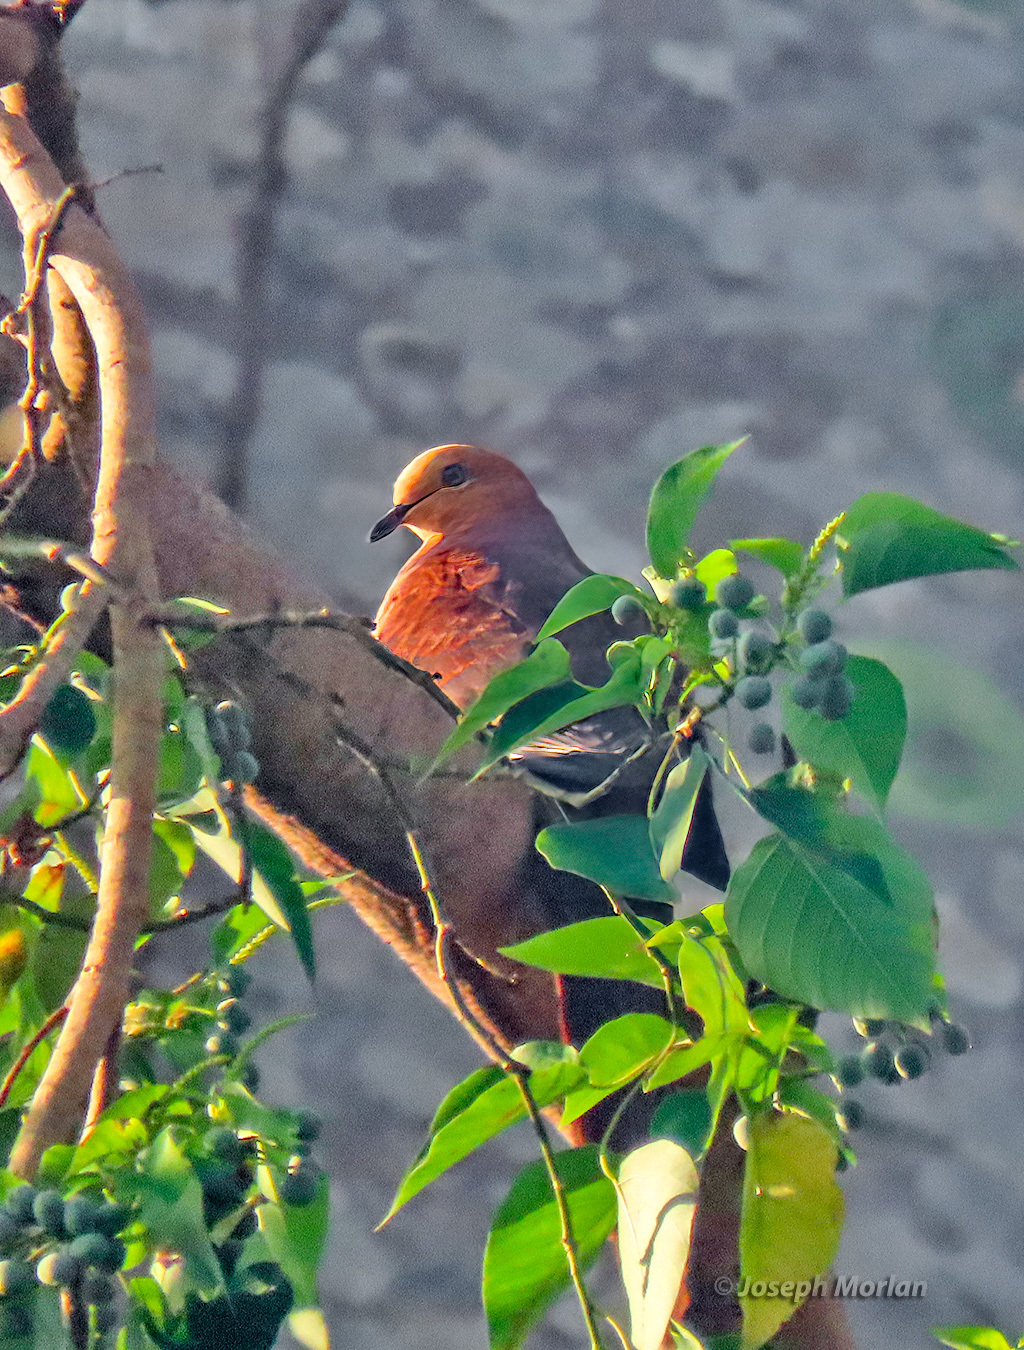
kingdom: Animalia
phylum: Chordata
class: Aves
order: Columbiformes
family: Columbidae
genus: Macropygia
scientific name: Macropygia doreya
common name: Sultan's cuckoo-dove
